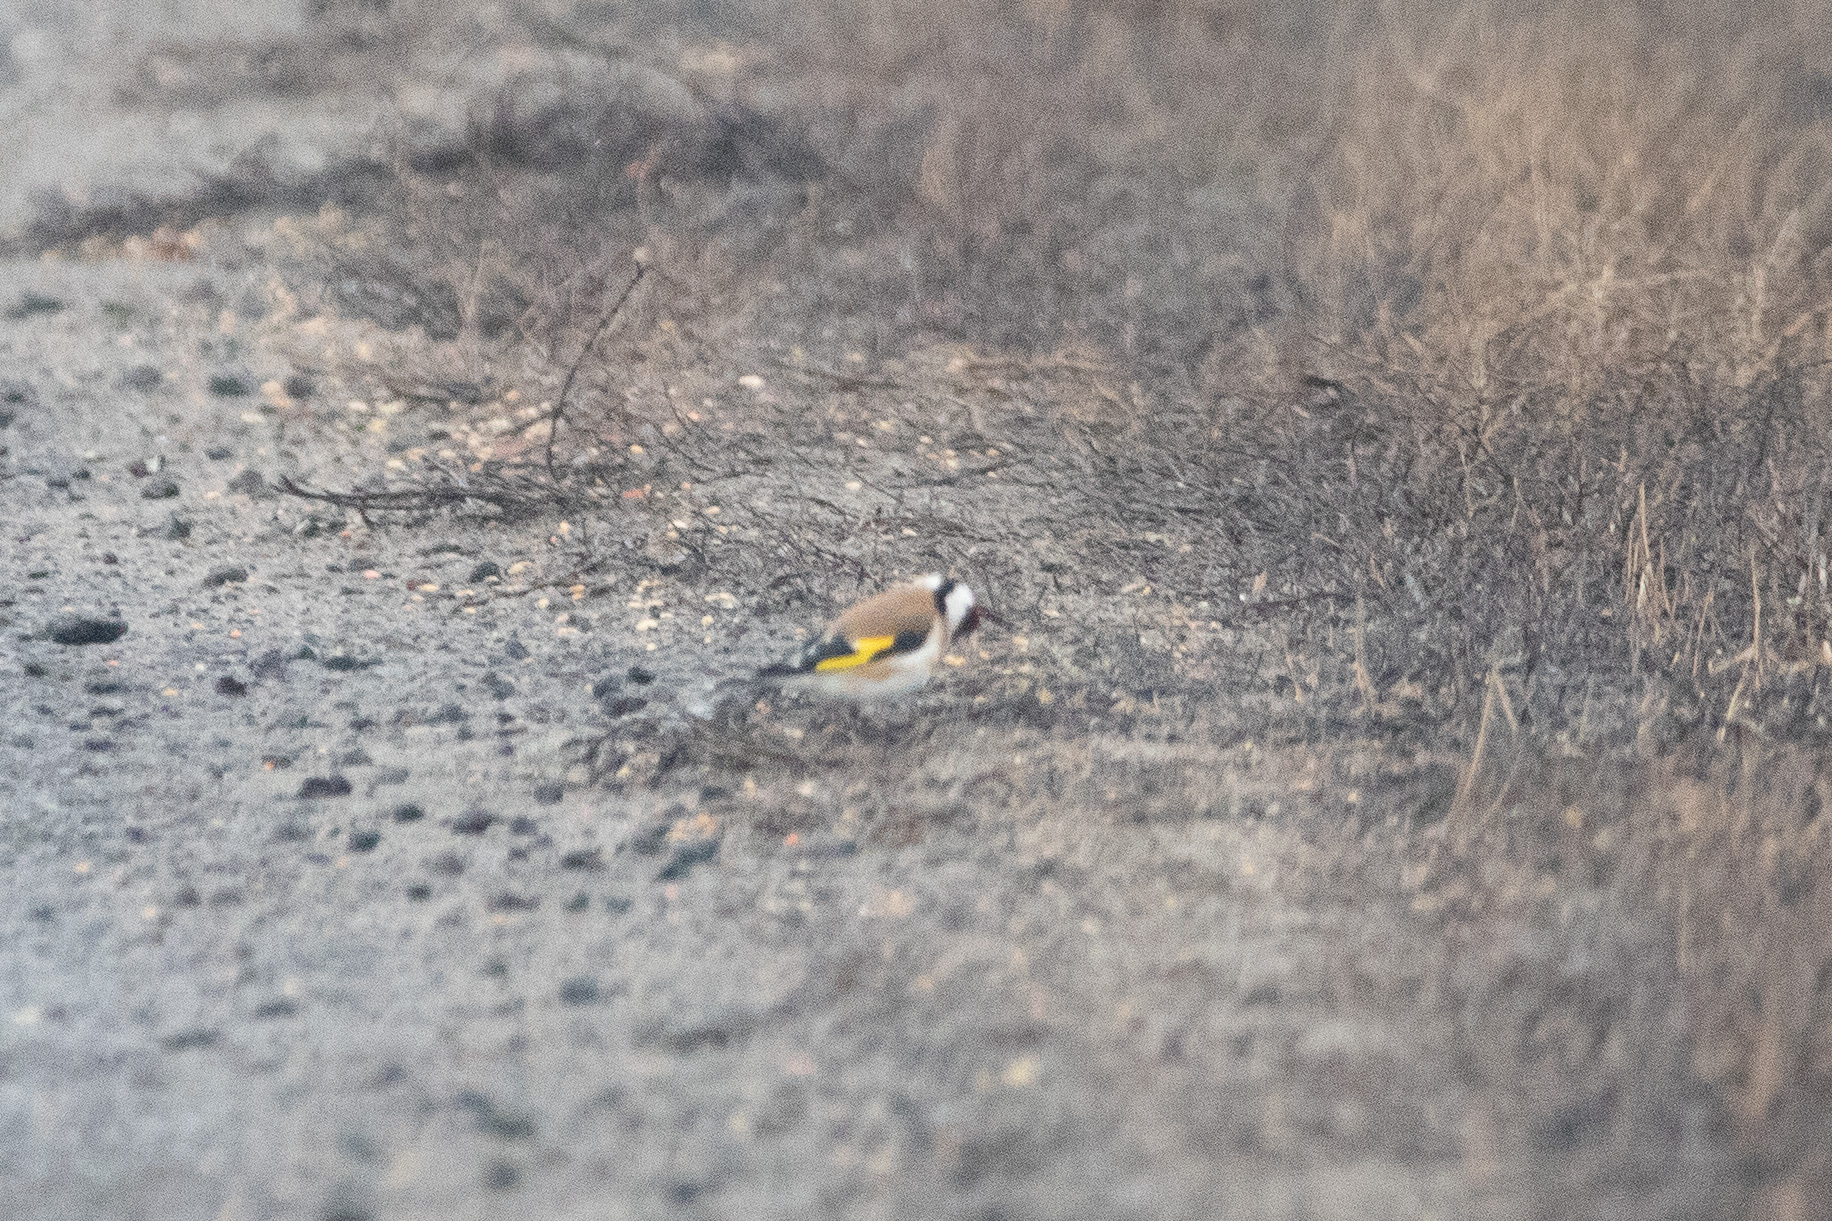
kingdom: Animalia
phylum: Chordata
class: Aves
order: Passeriformes
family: Fringillidae
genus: Carduelis
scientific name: Carduelis carduelis
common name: European goldfinch
